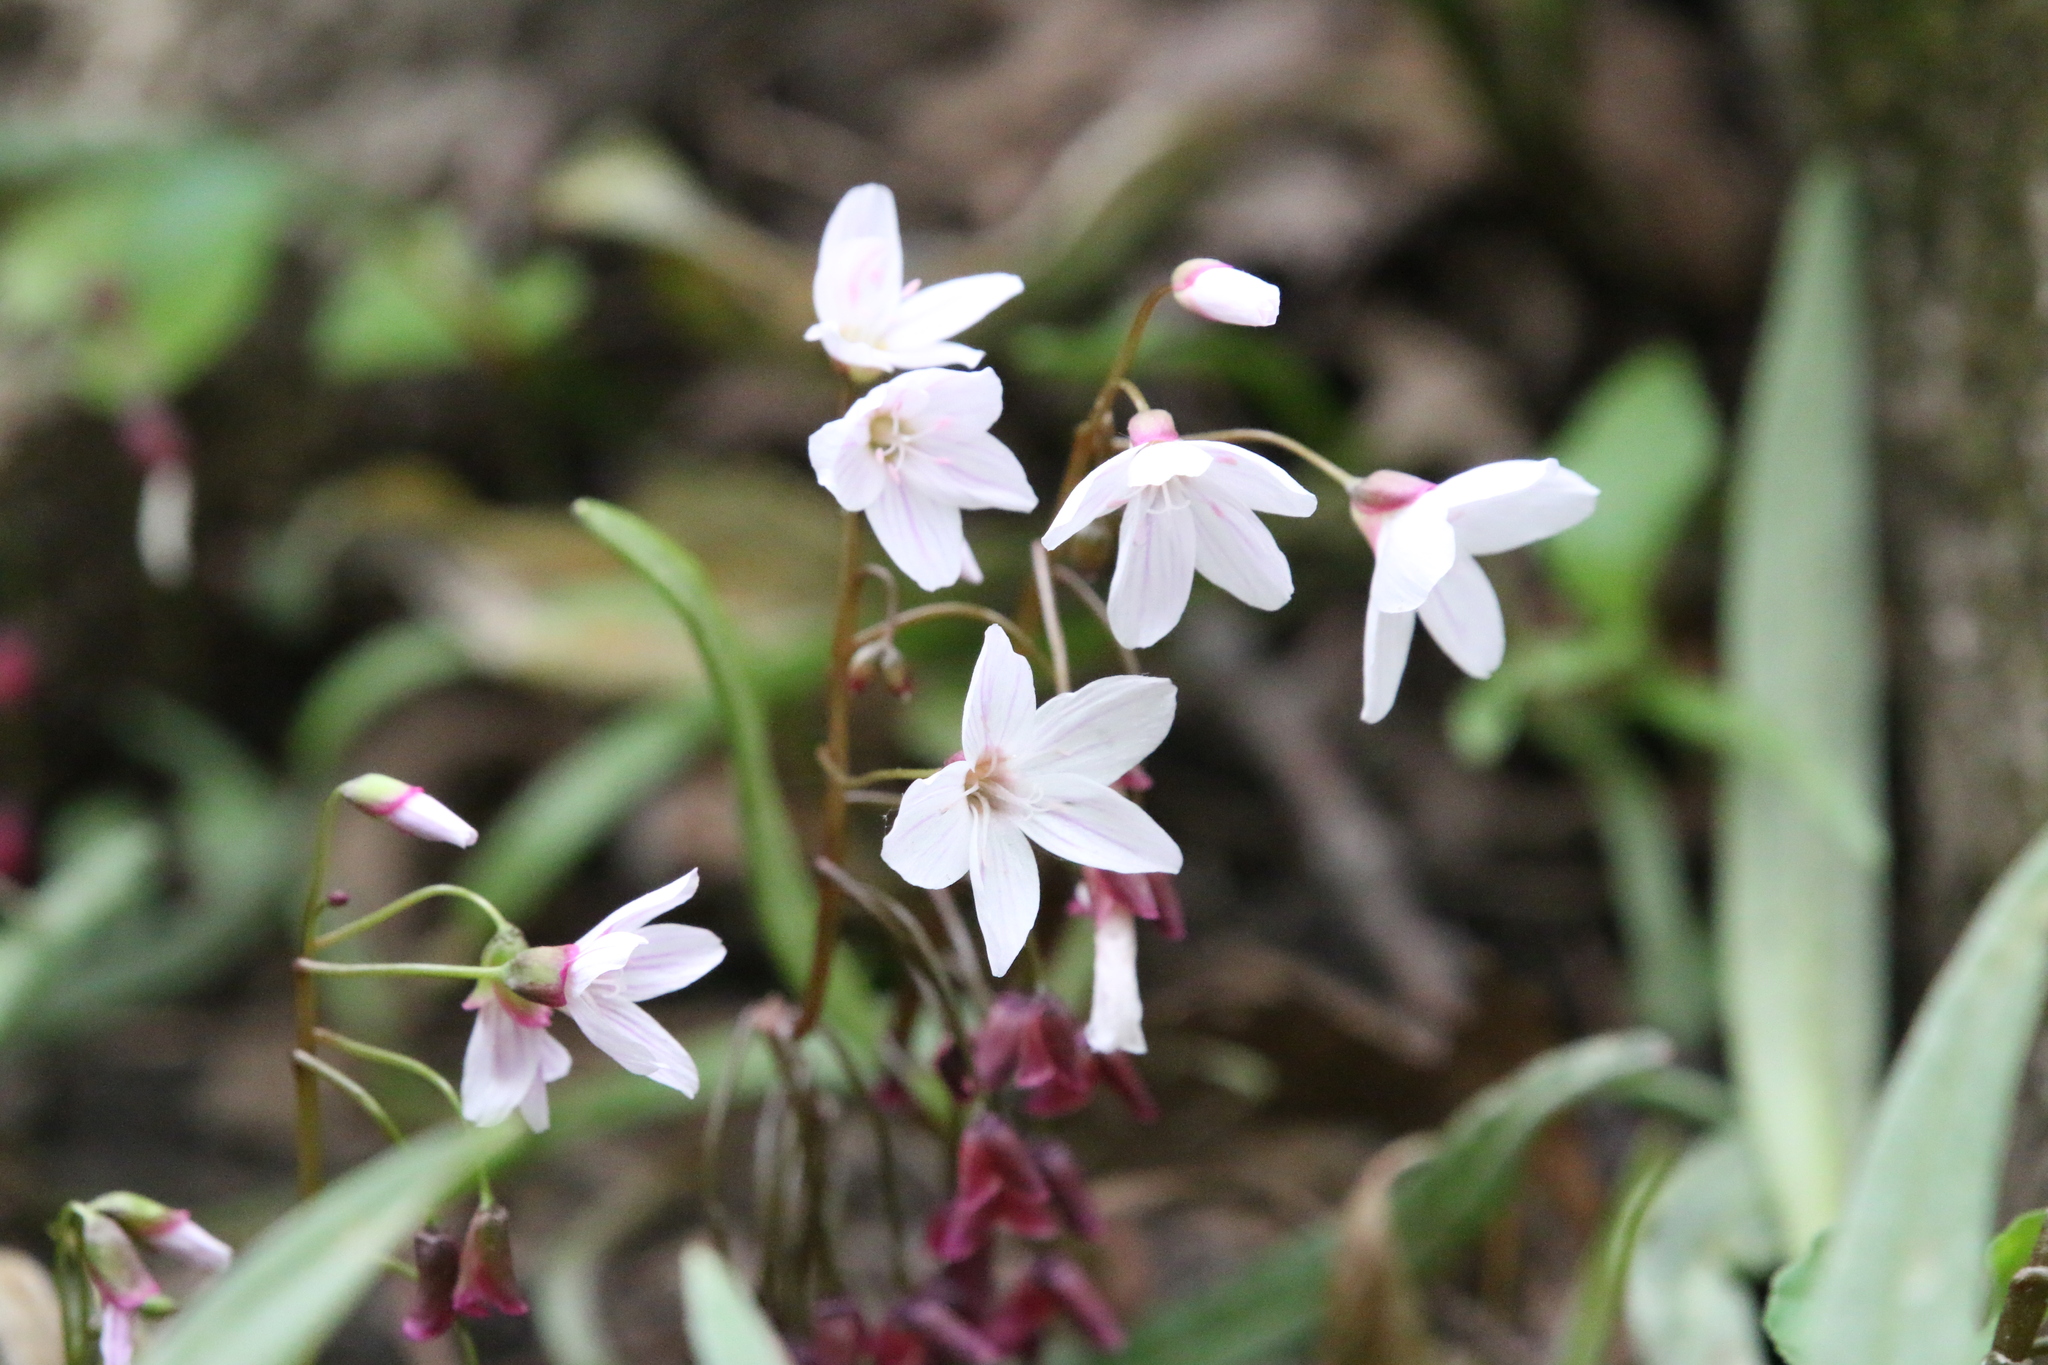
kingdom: Plantae
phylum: Tracheophyta
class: Magnoliopsida
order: Caryophyllales
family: Montiaceae
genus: Claytonia
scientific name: Claytonia virginica
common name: Virginia springbeauty
